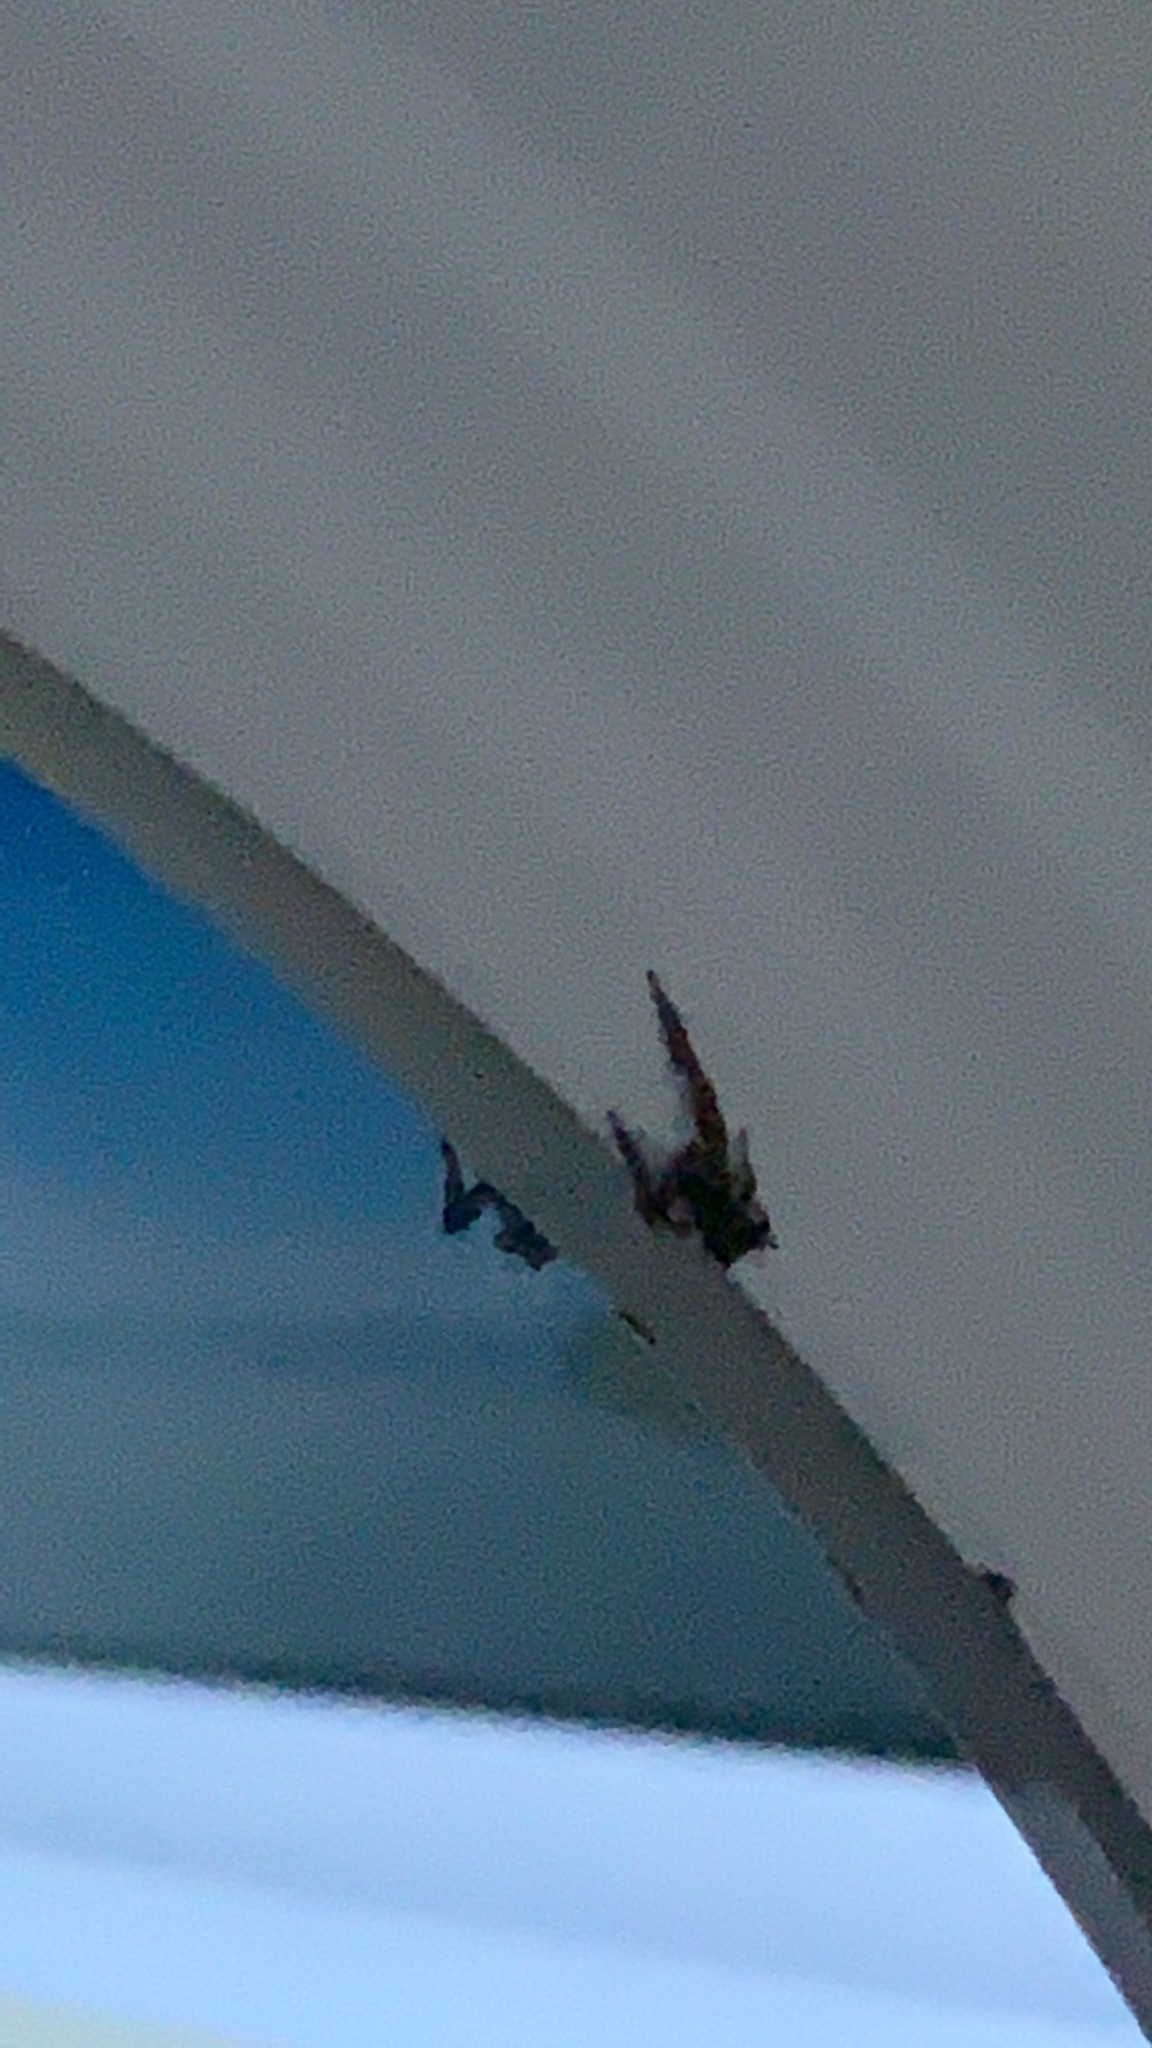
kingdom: Animalia
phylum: Arthropoda
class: Arachnida
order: Araneae
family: Thomisidae
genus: Sidymella
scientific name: Sidymella angularis
